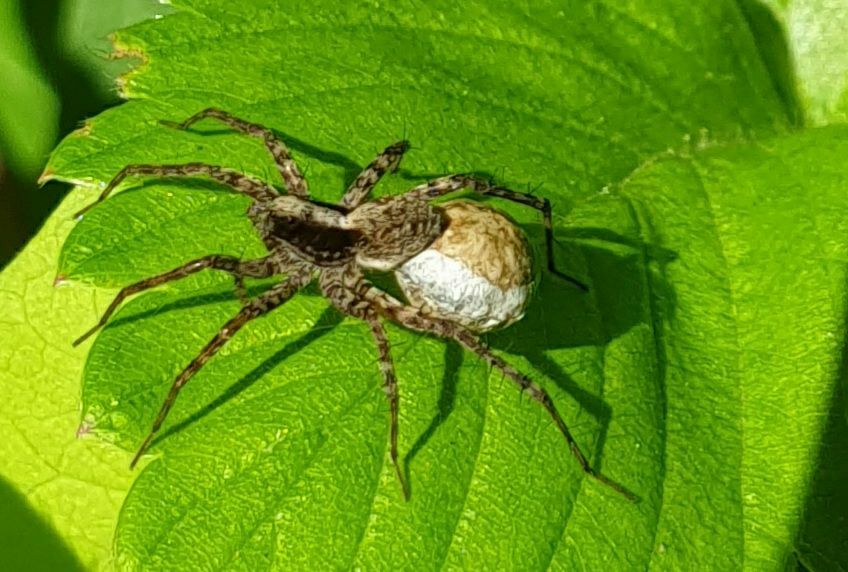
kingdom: Animalia
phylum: Arthropoda
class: Arachnida
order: Araneae
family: Lycosidae
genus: Pardosa
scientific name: Pardosa
